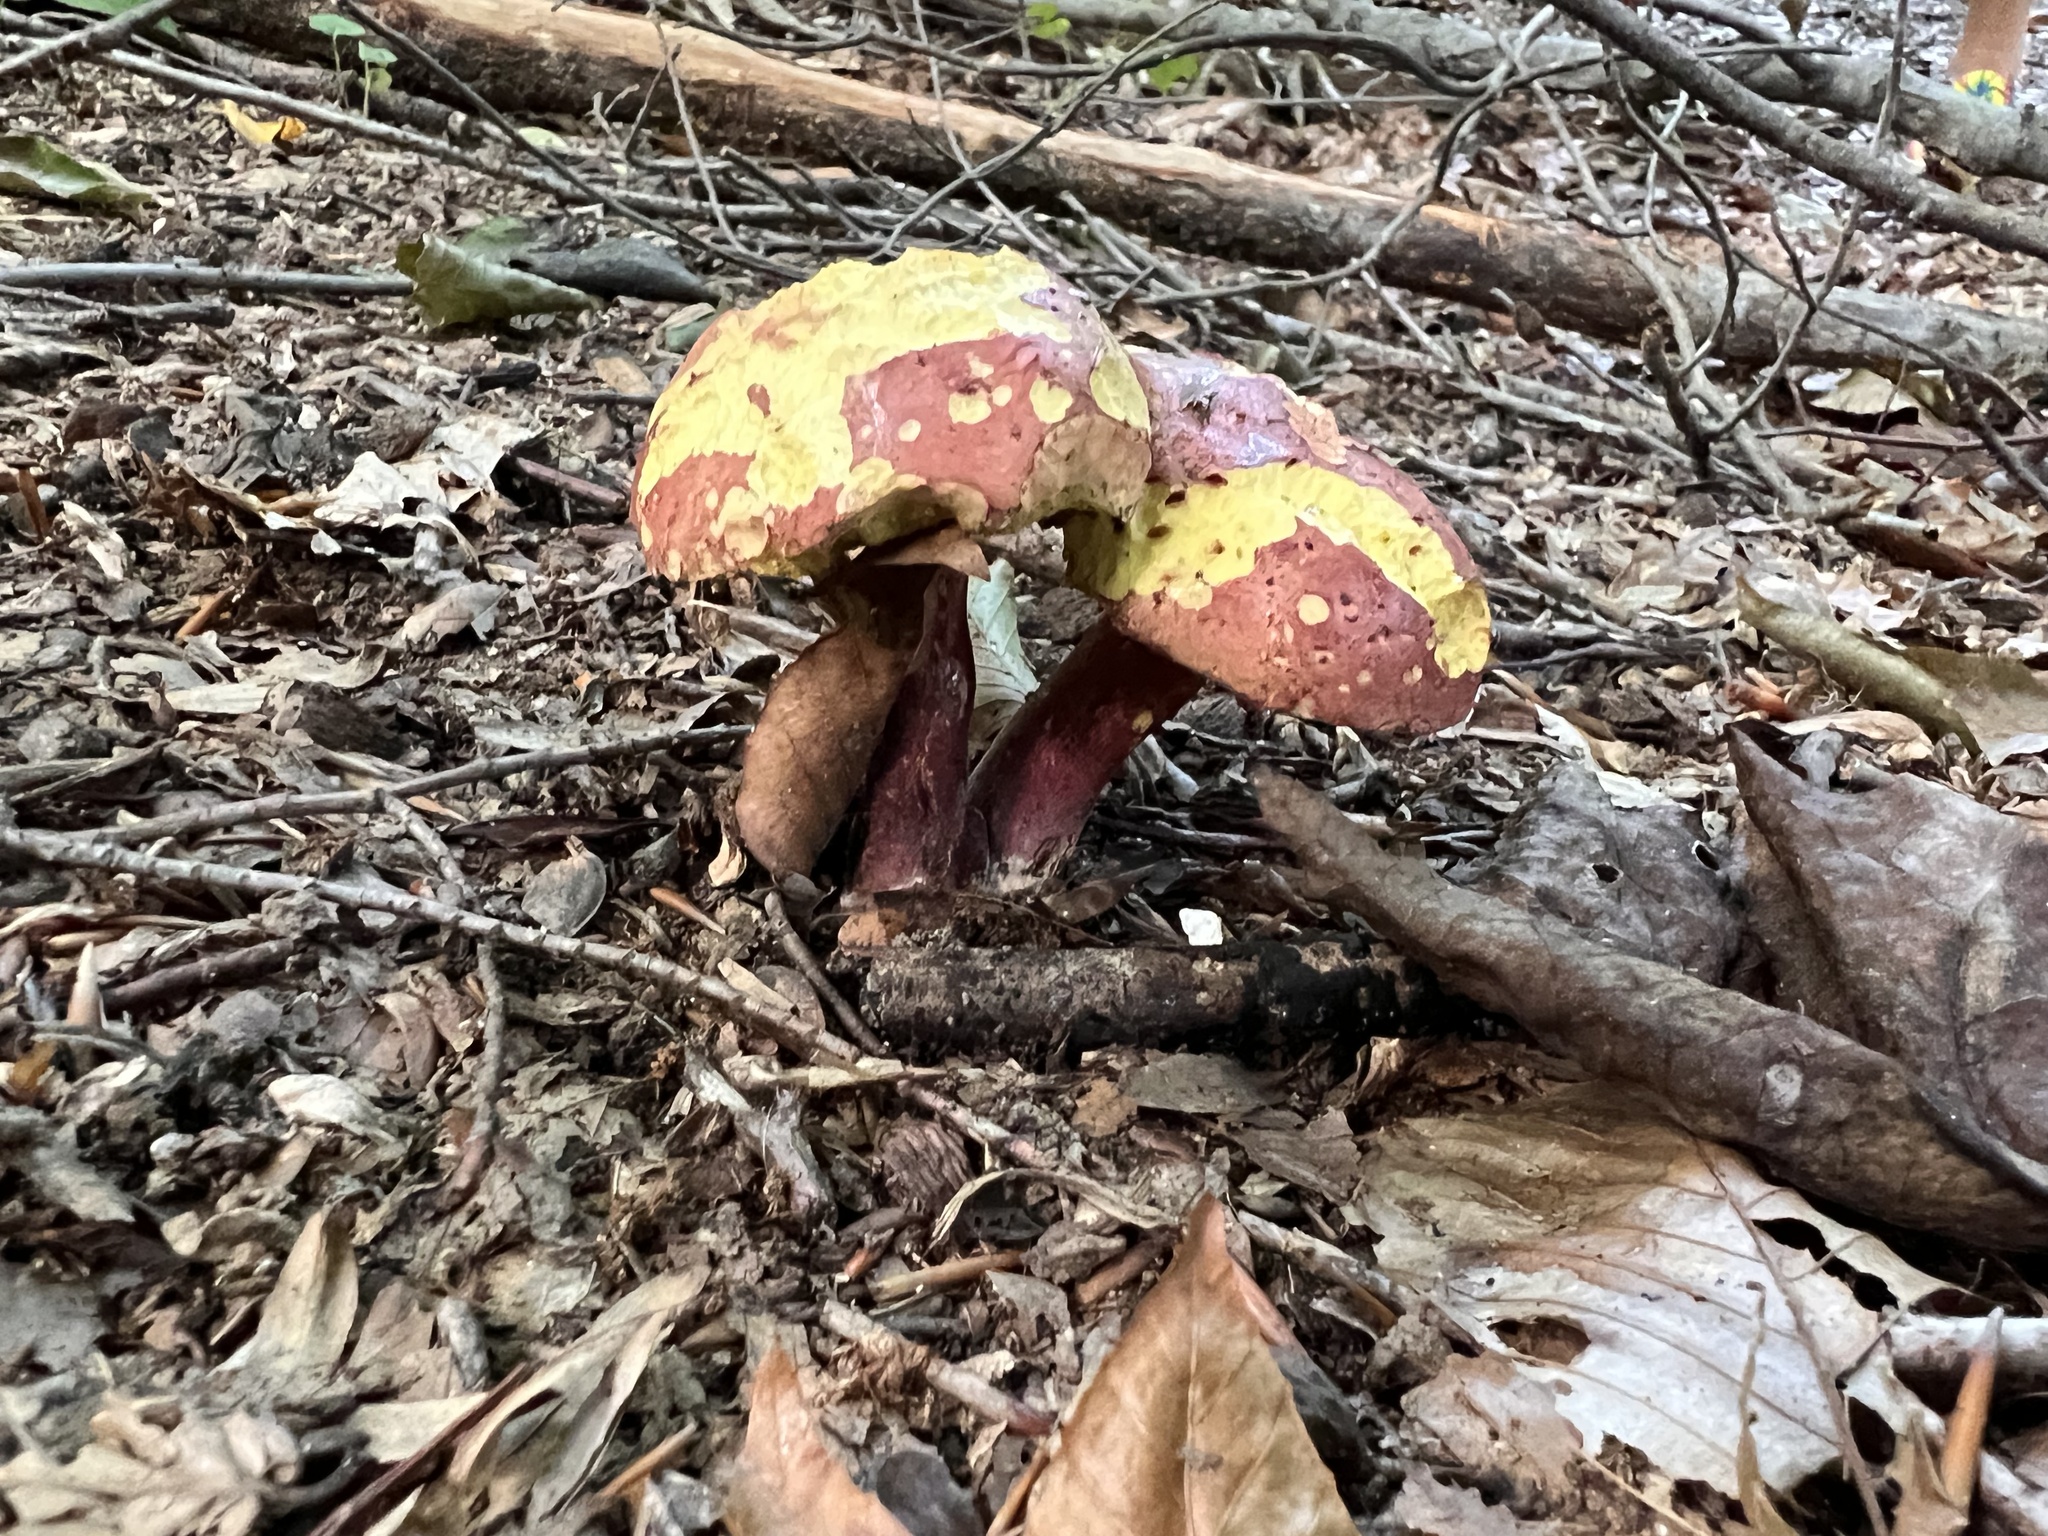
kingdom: Fungi
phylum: Basidiomycota
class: Agaricomycetes
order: Boletales
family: Boletaceae
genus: Baorangia
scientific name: Baorangia bicolor
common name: Two-colored bolete
